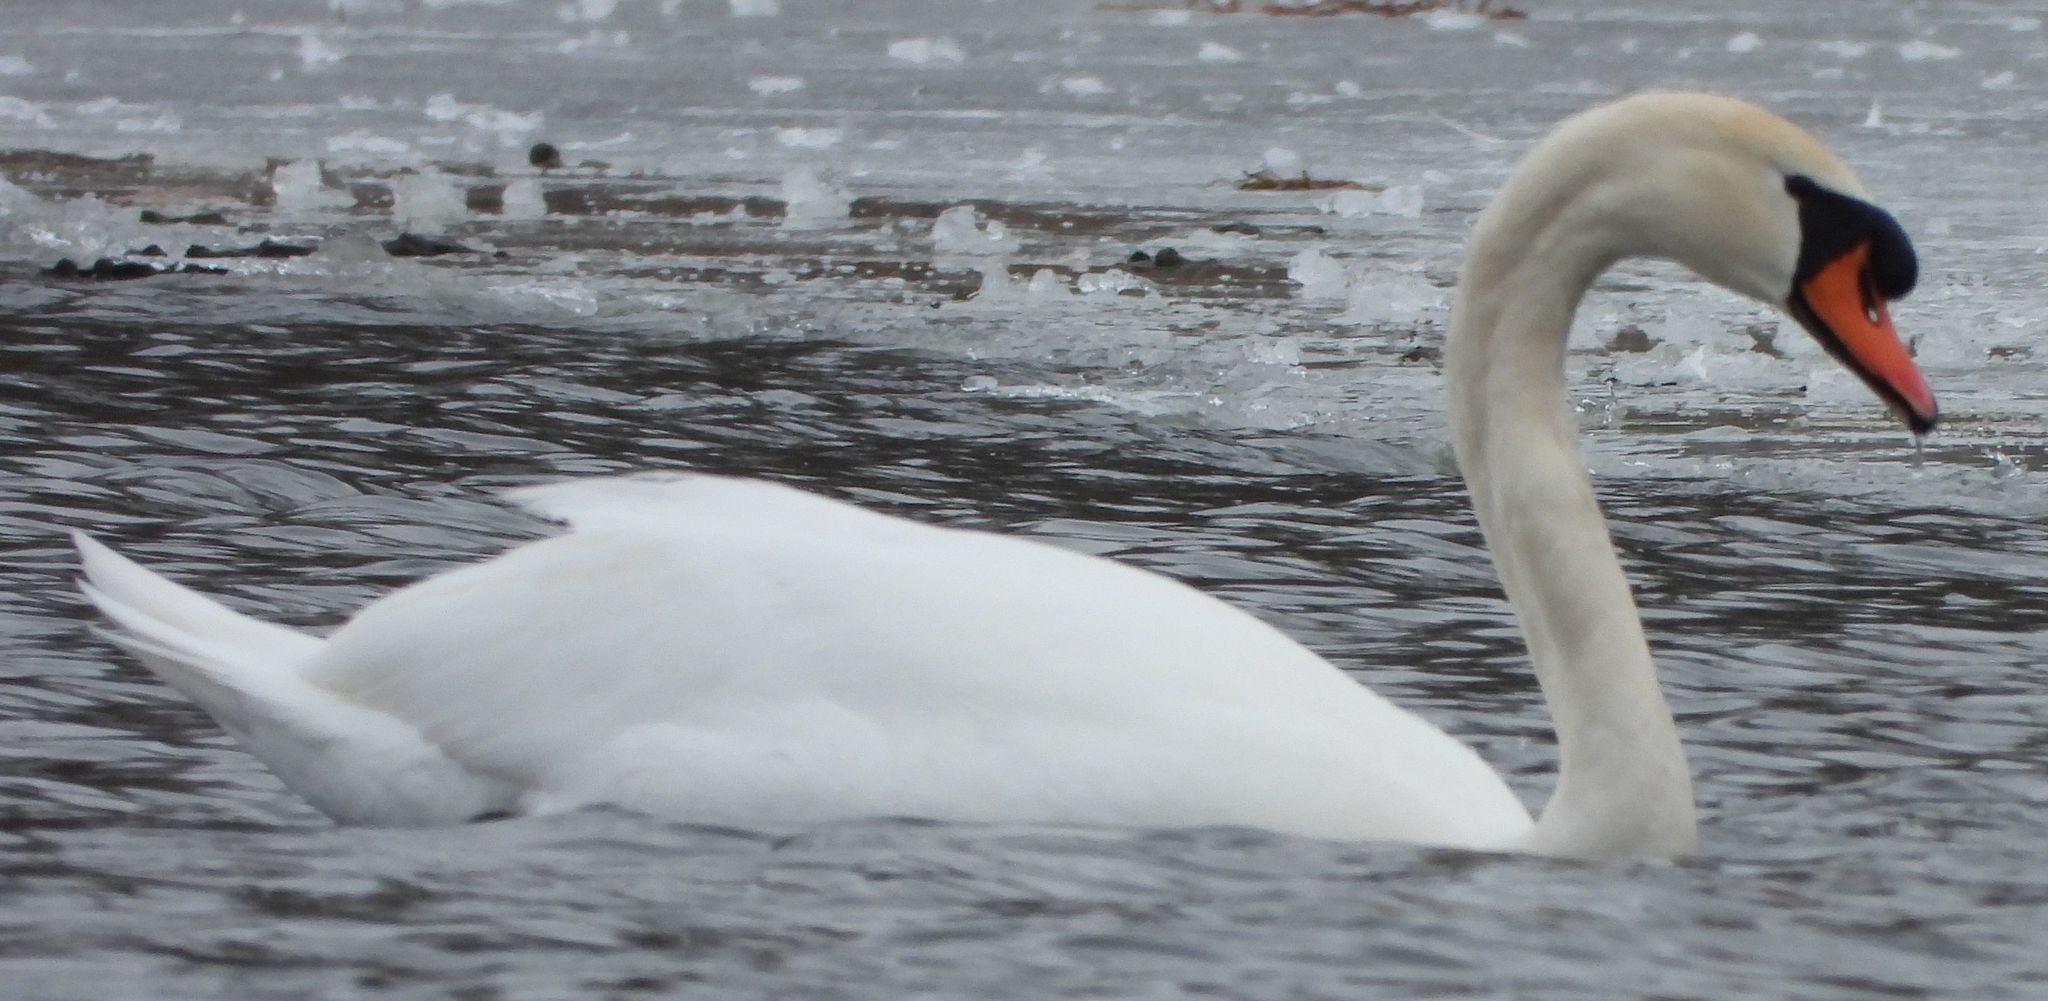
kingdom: Animalia
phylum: Chordata
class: Aves
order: Anseriformes
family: Anatidae
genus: Cygnus
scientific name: Cygnus olor
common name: Mute swan
